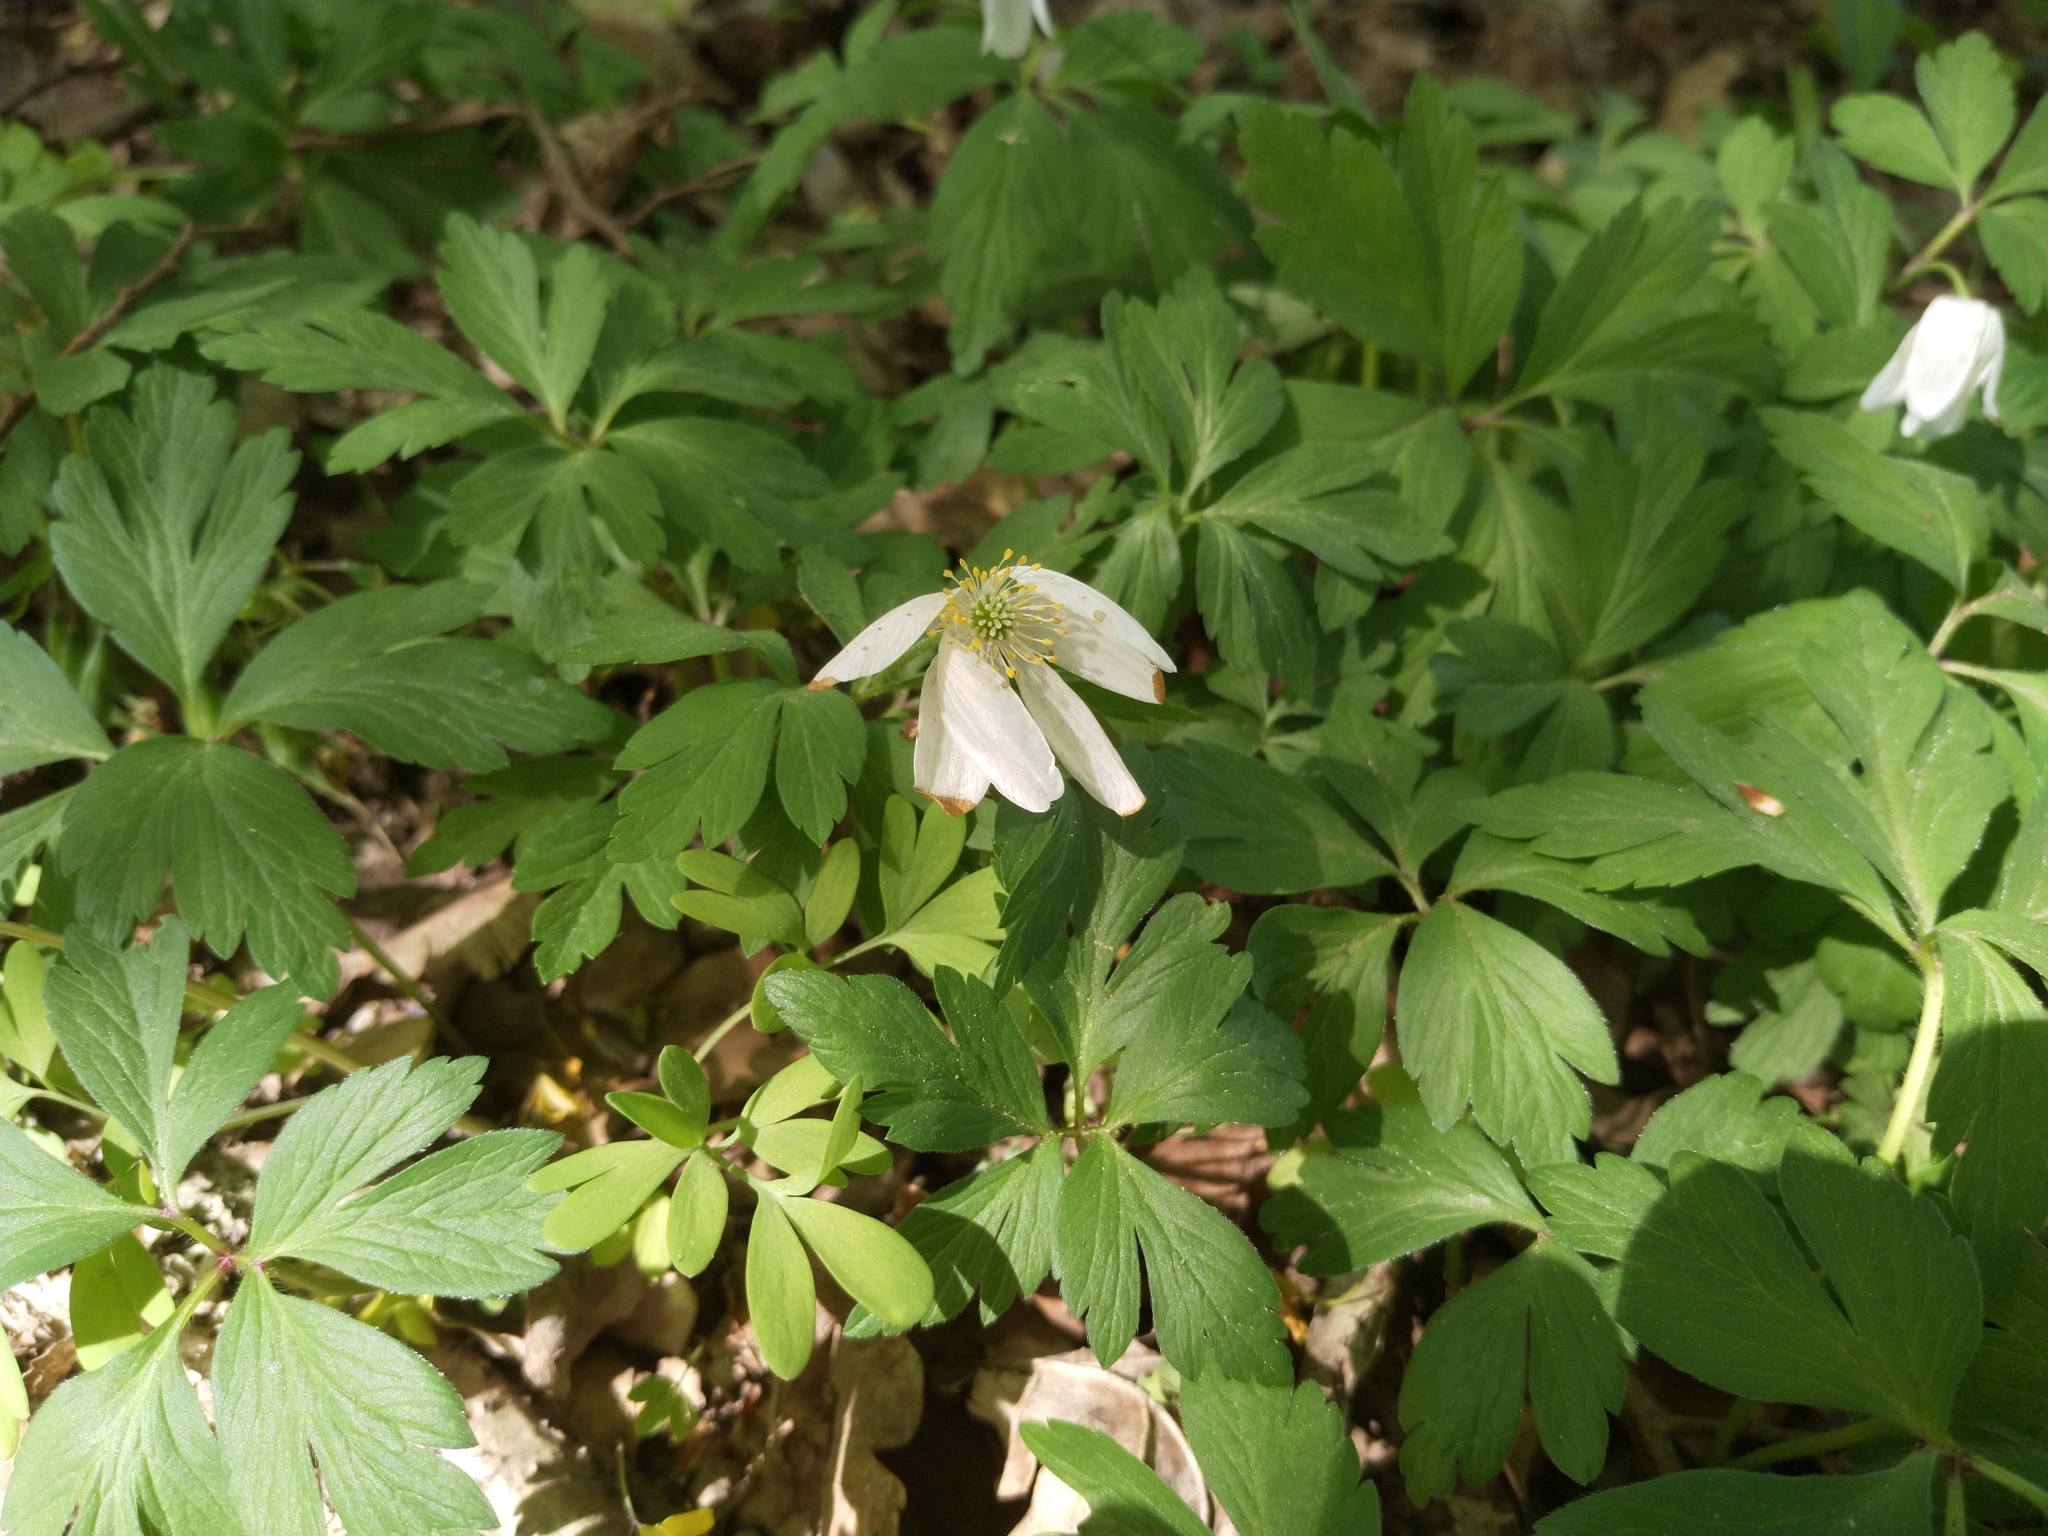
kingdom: Plantae
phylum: Tracheophyta
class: Magnoliopsida
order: Ranunculales
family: Ranunculaceae
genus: Anemone
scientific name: Anemone nemorosa
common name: Wood anemone
